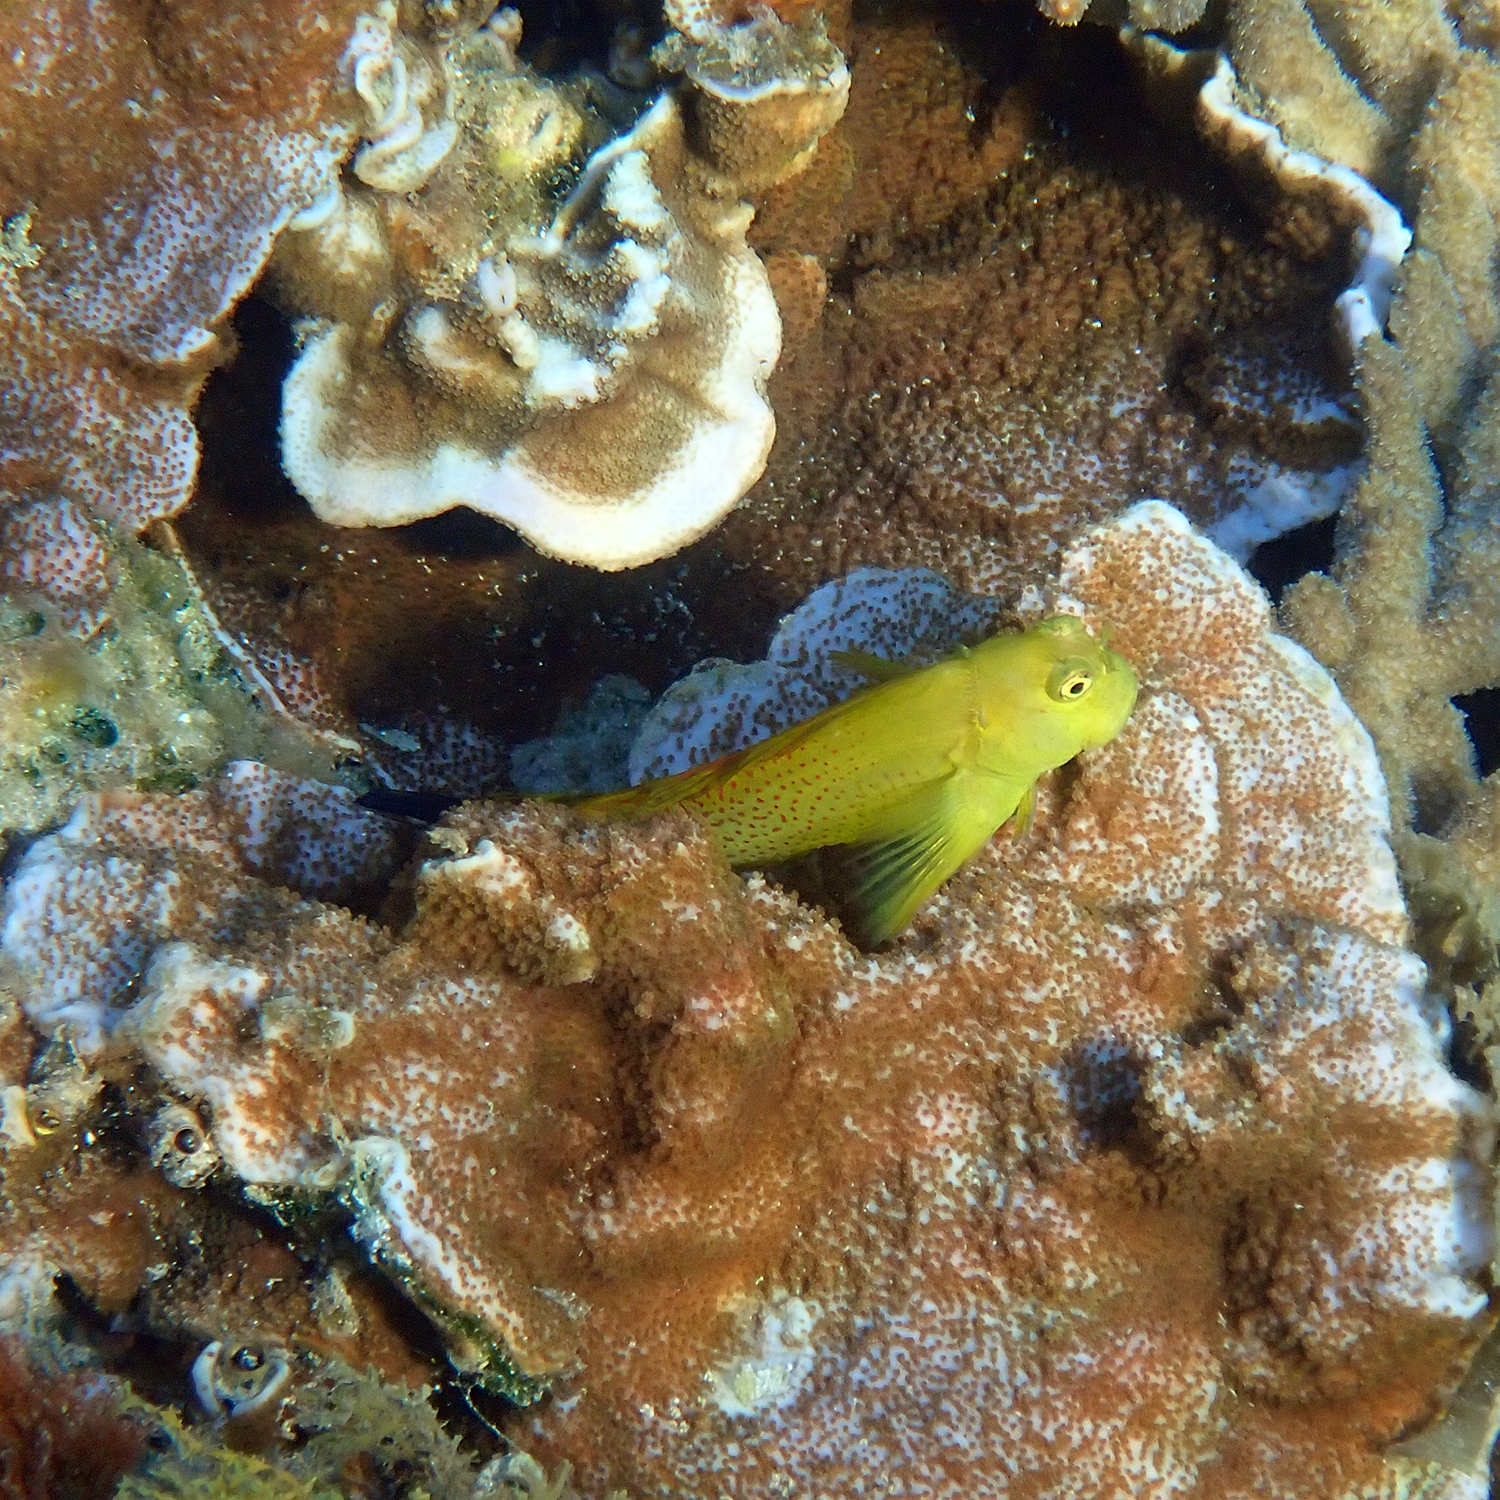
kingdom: Animalia
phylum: Chordata
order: Perciformes
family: Blenniidae
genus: Cirripectes
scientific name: Cirripectes chelomatus
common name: Lady musgrave blenny
